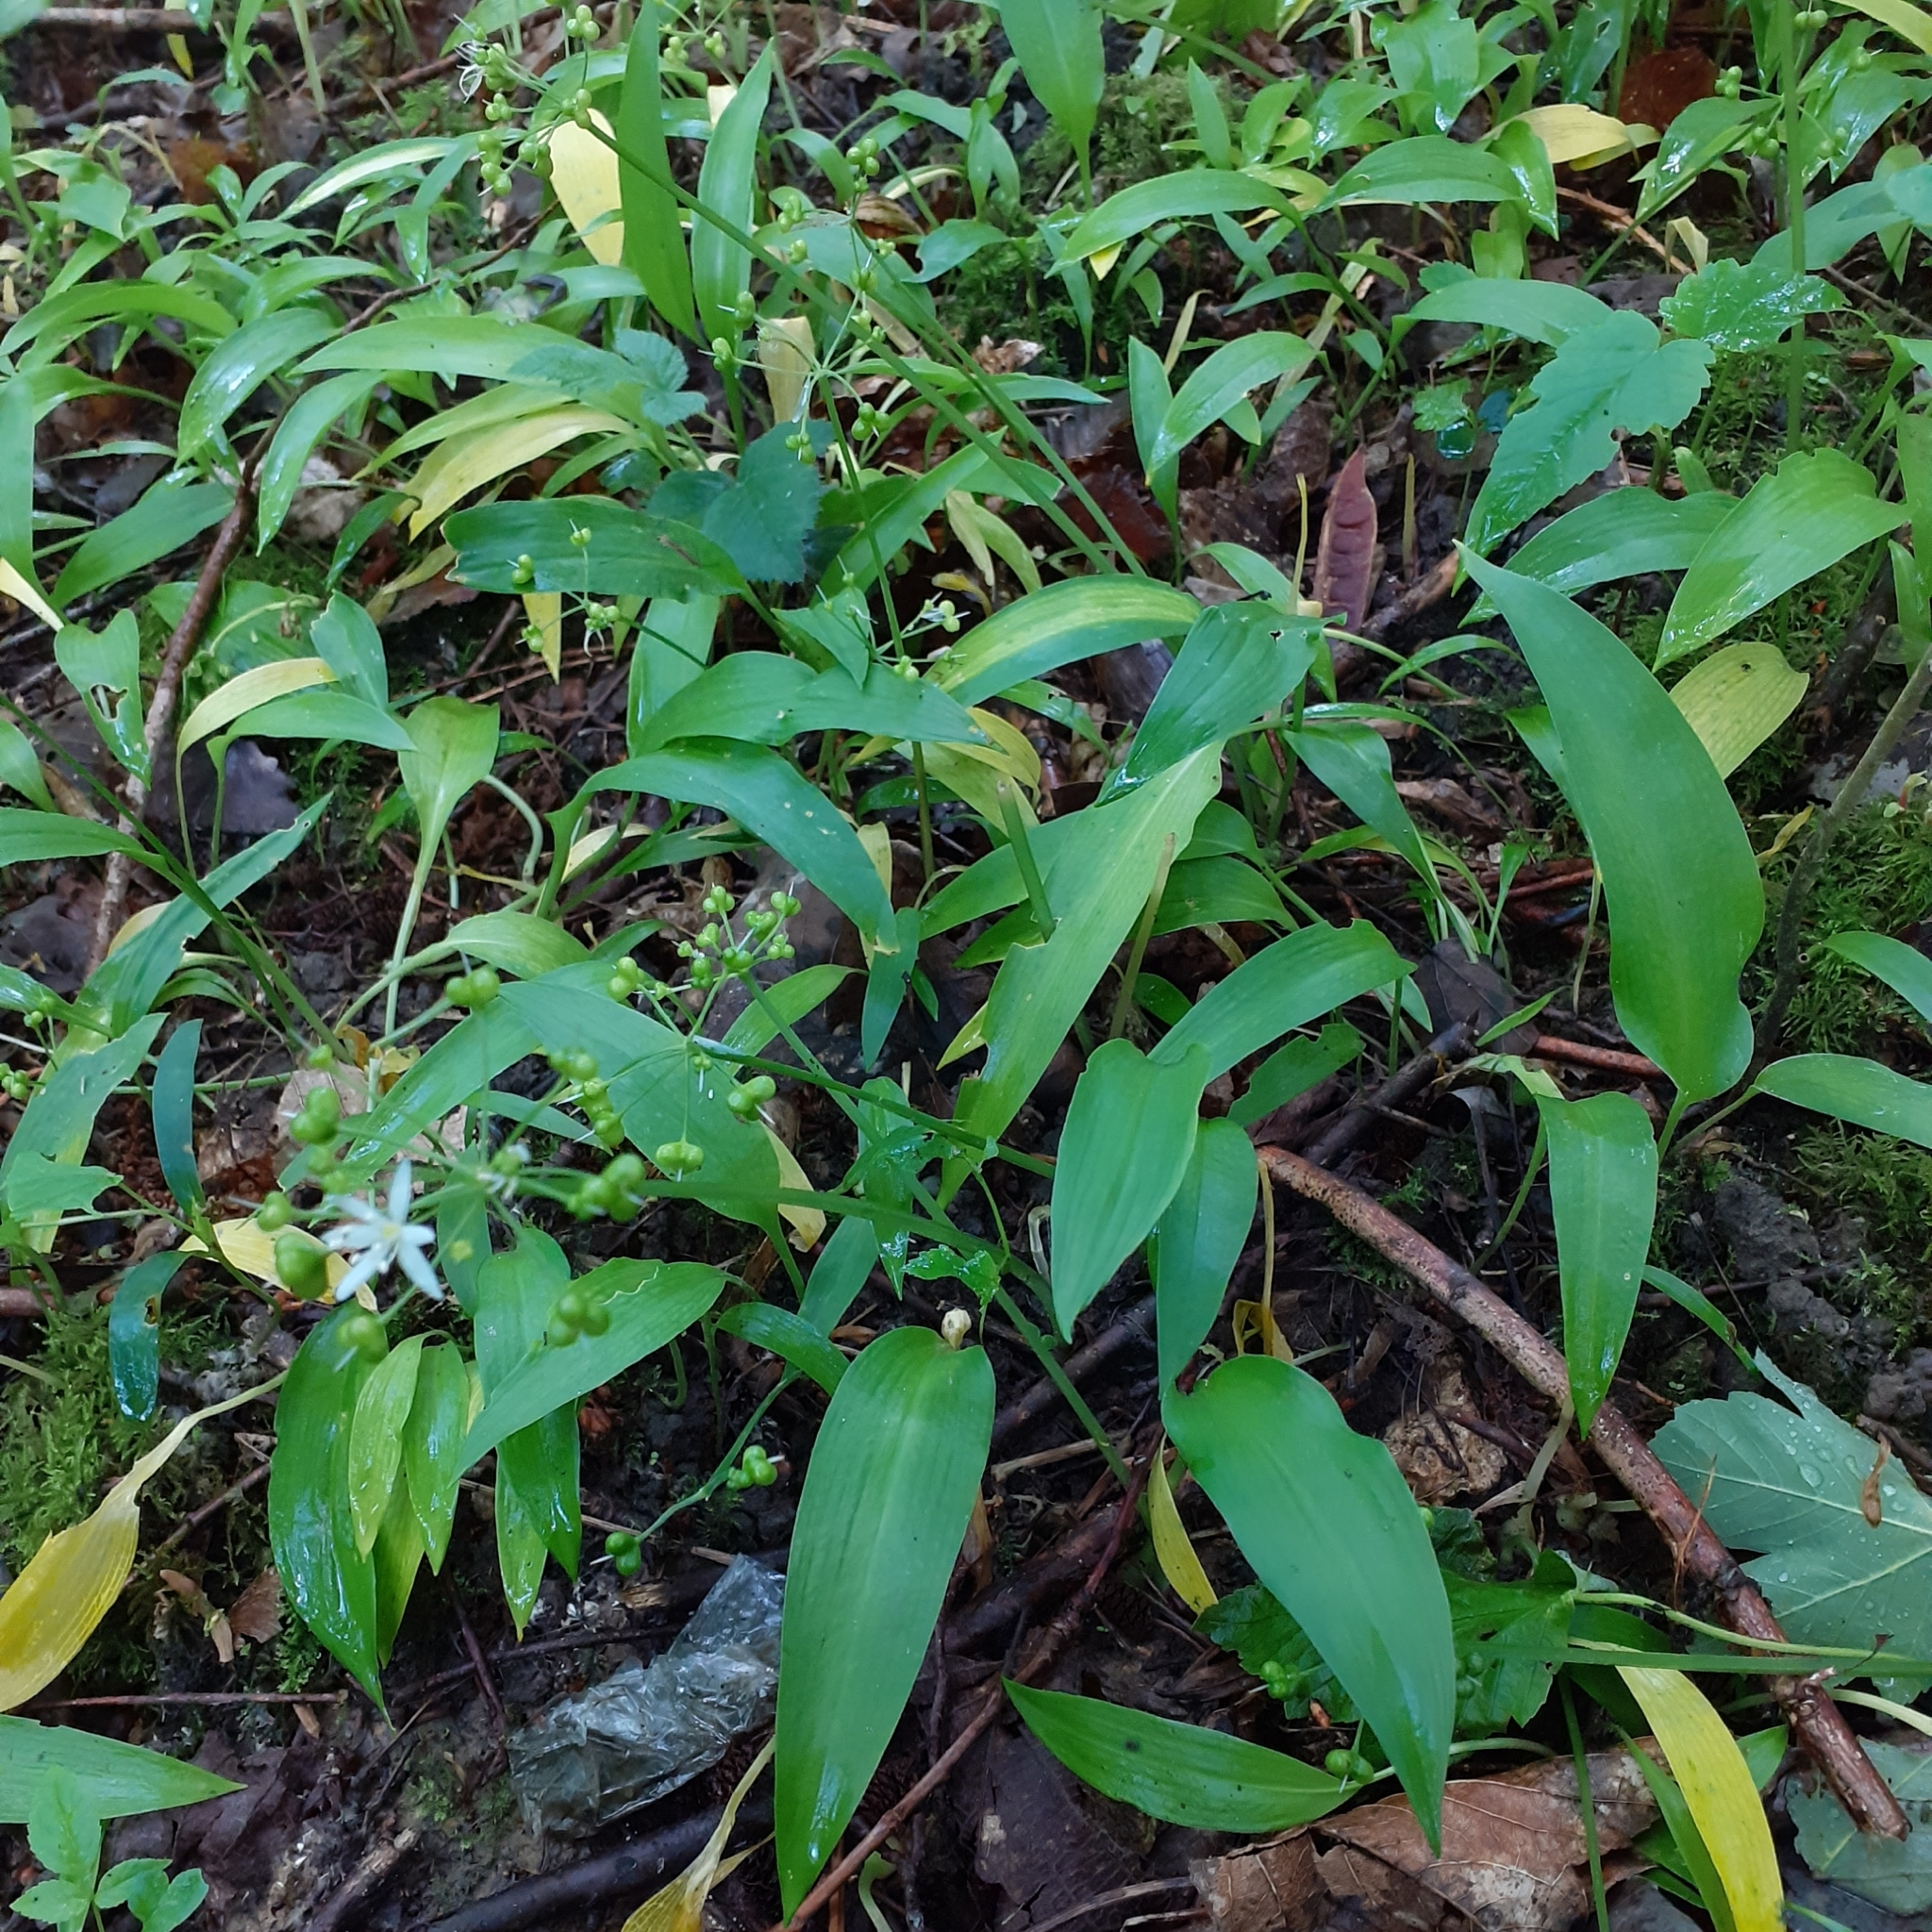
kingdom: Plantae
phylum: Tracheophyta
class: Liliopsida
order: Asparagales
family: Amaryllidaceae
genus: Allium
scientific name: Allium ursinum
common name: Ramsons
